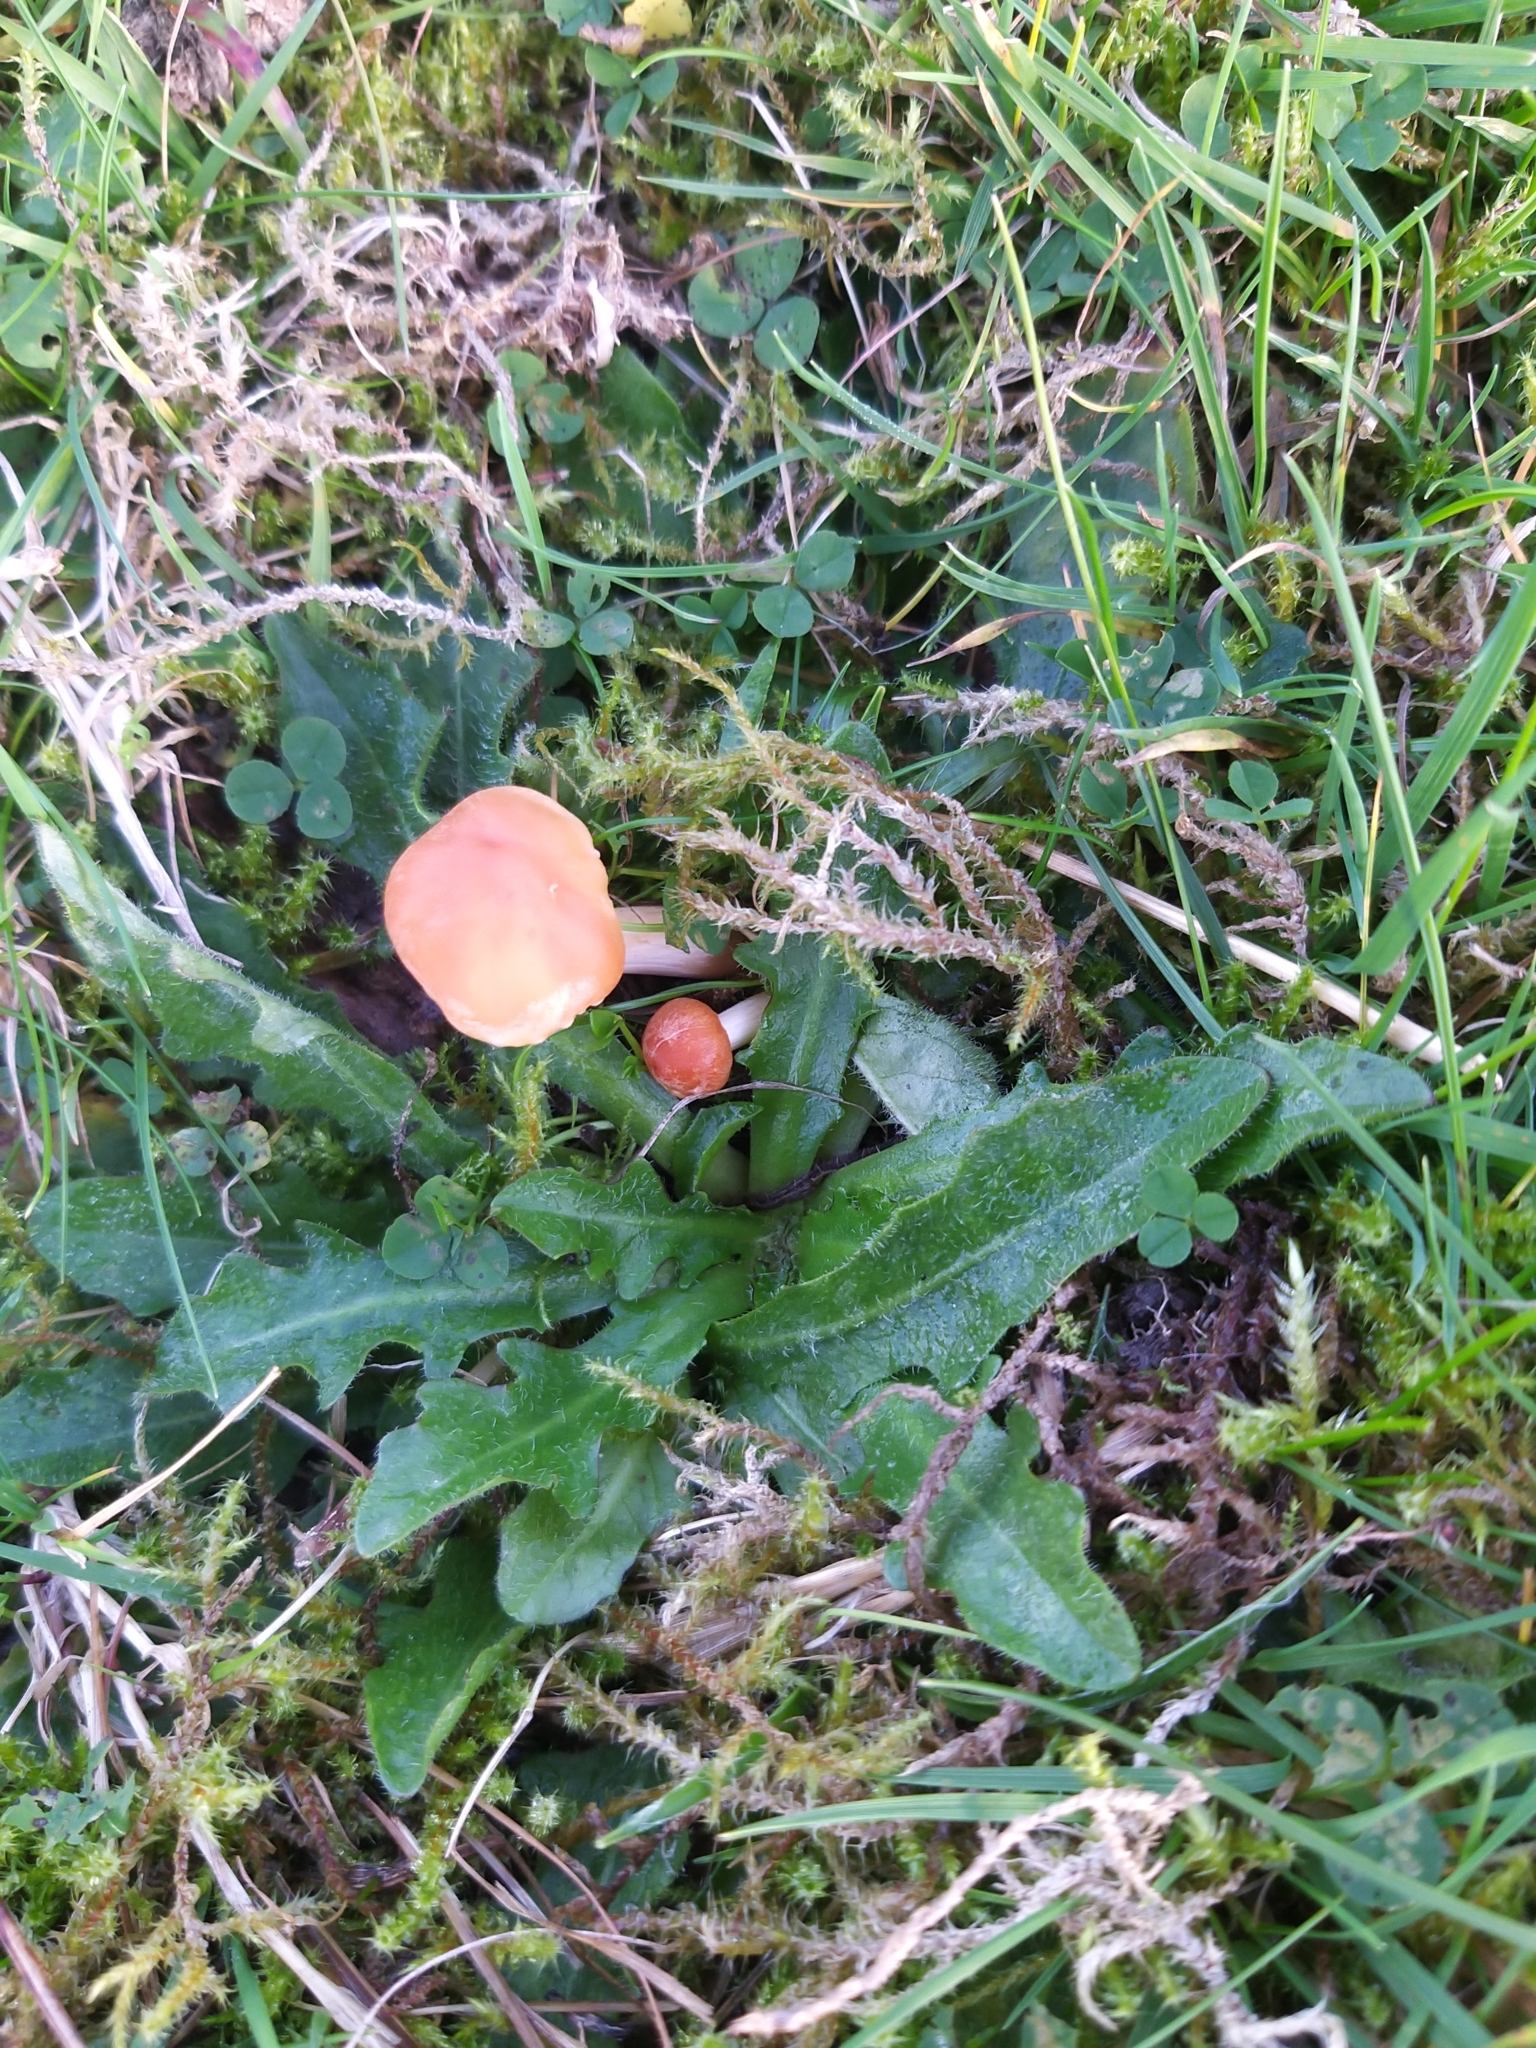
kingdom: Fungi
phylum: Basidiomycota
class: Agaricomycetes
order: Agaricales
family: Hygrophoraceae
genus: Cuphophyllus
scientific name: Cuphophyllus pratensis
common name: Meadow waxcap
